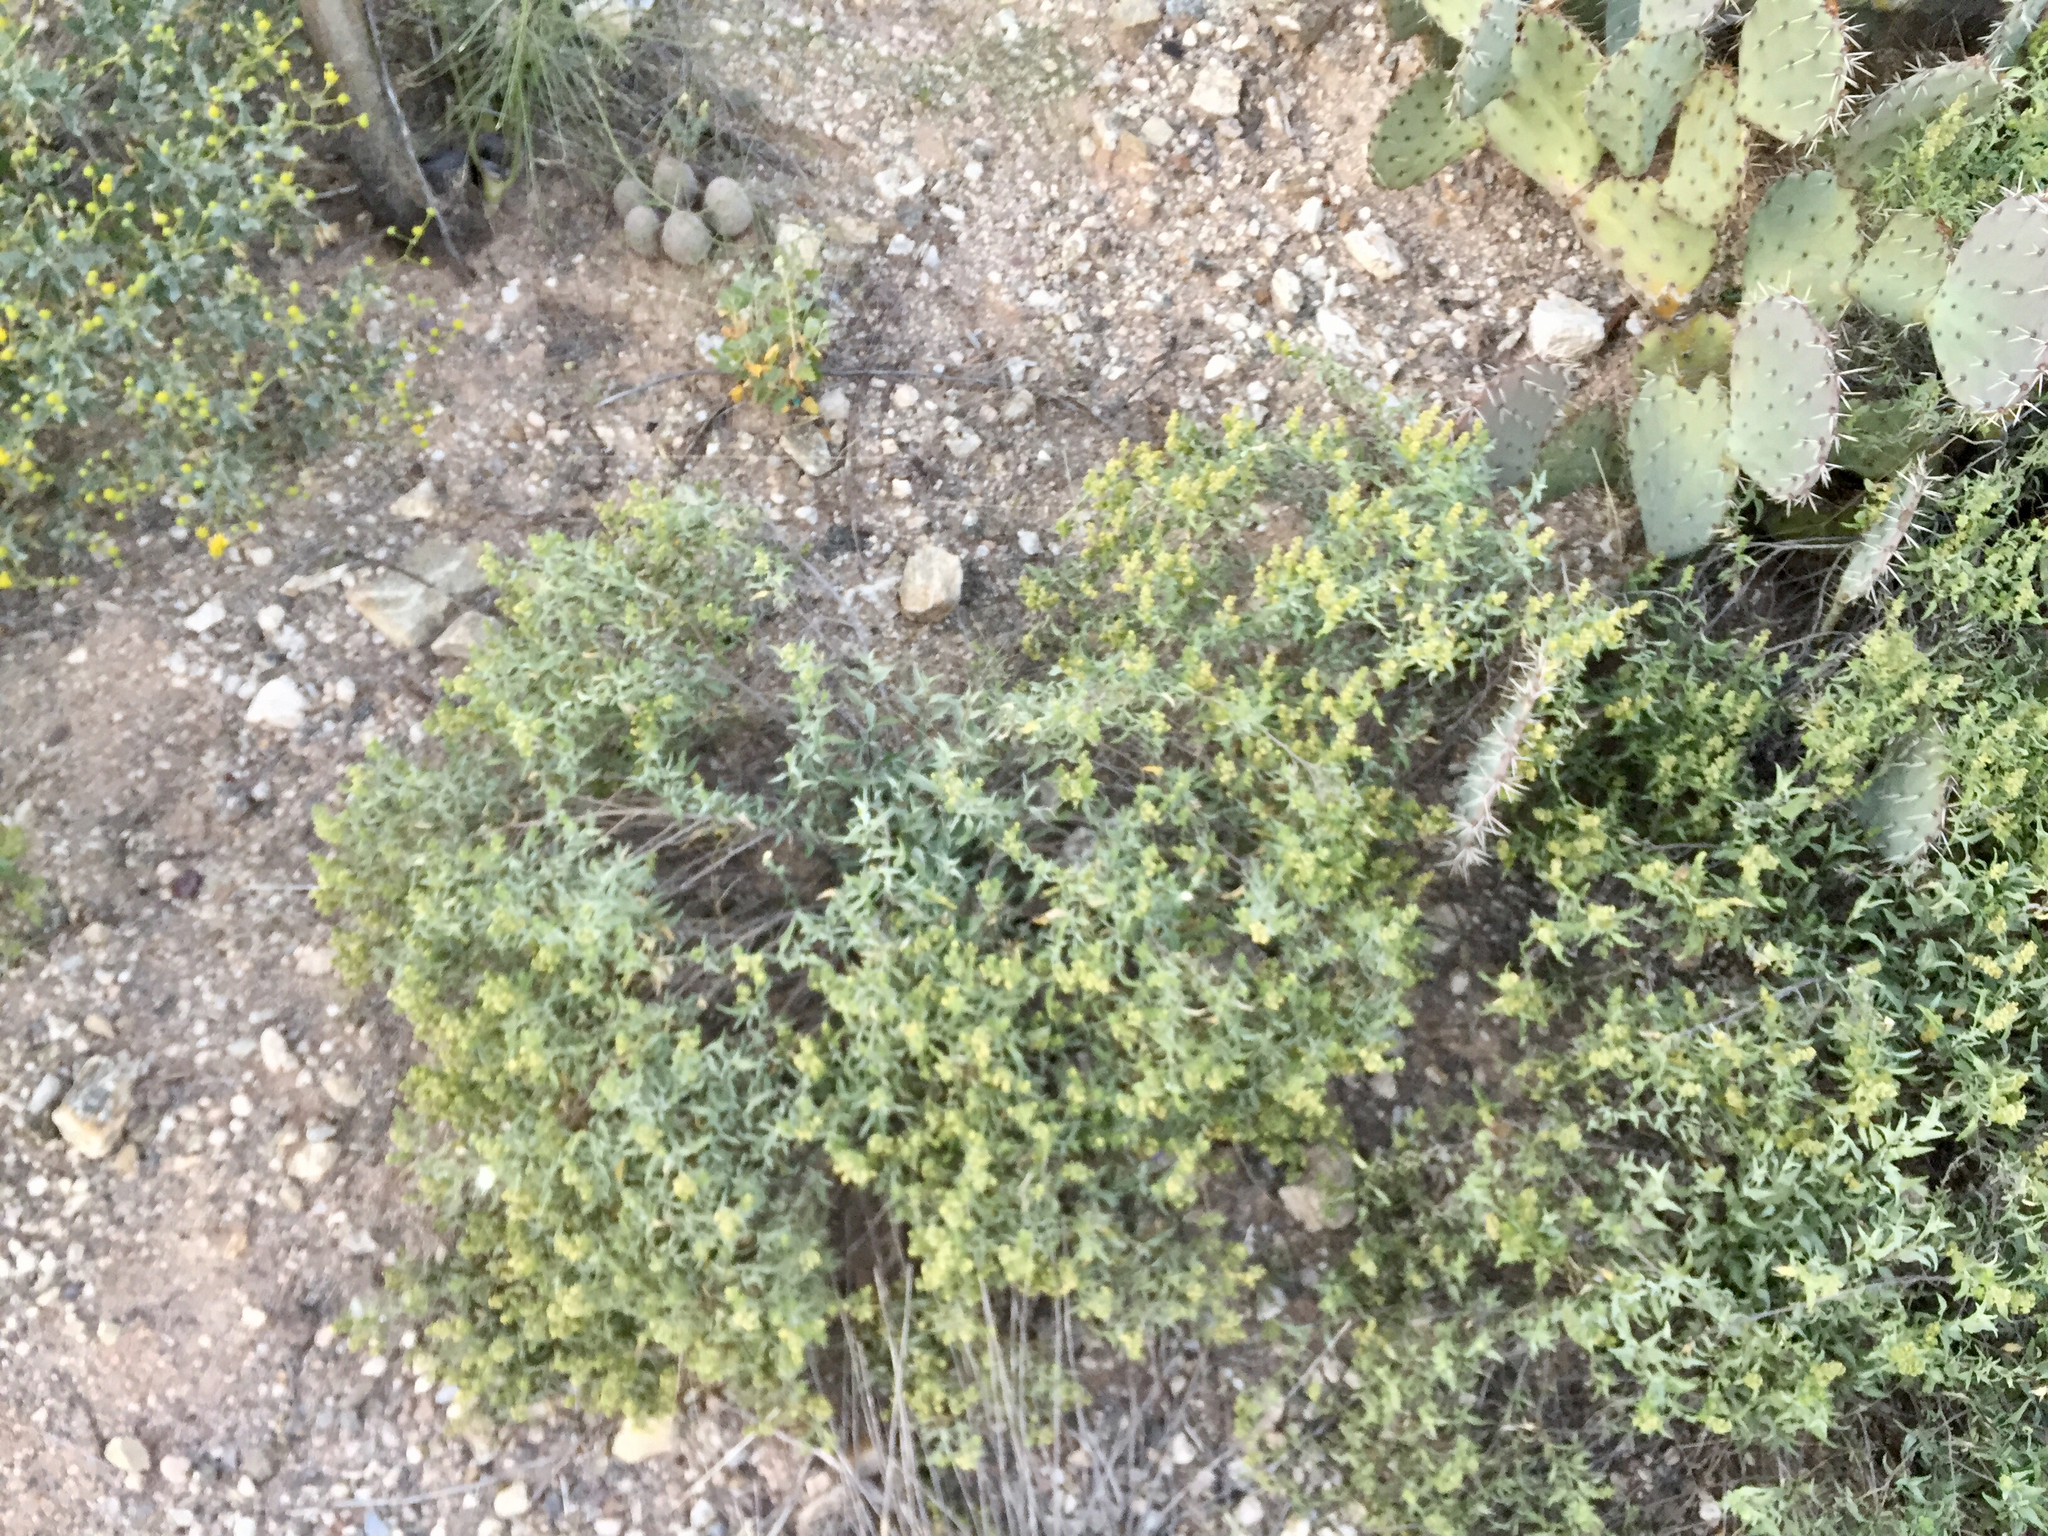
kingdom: Plantae
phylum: Tracheophyta
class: Magnoliopsida
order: Asterales
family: Asteraceae
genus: Ambrosia
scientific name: Ambrosia deltoidea
